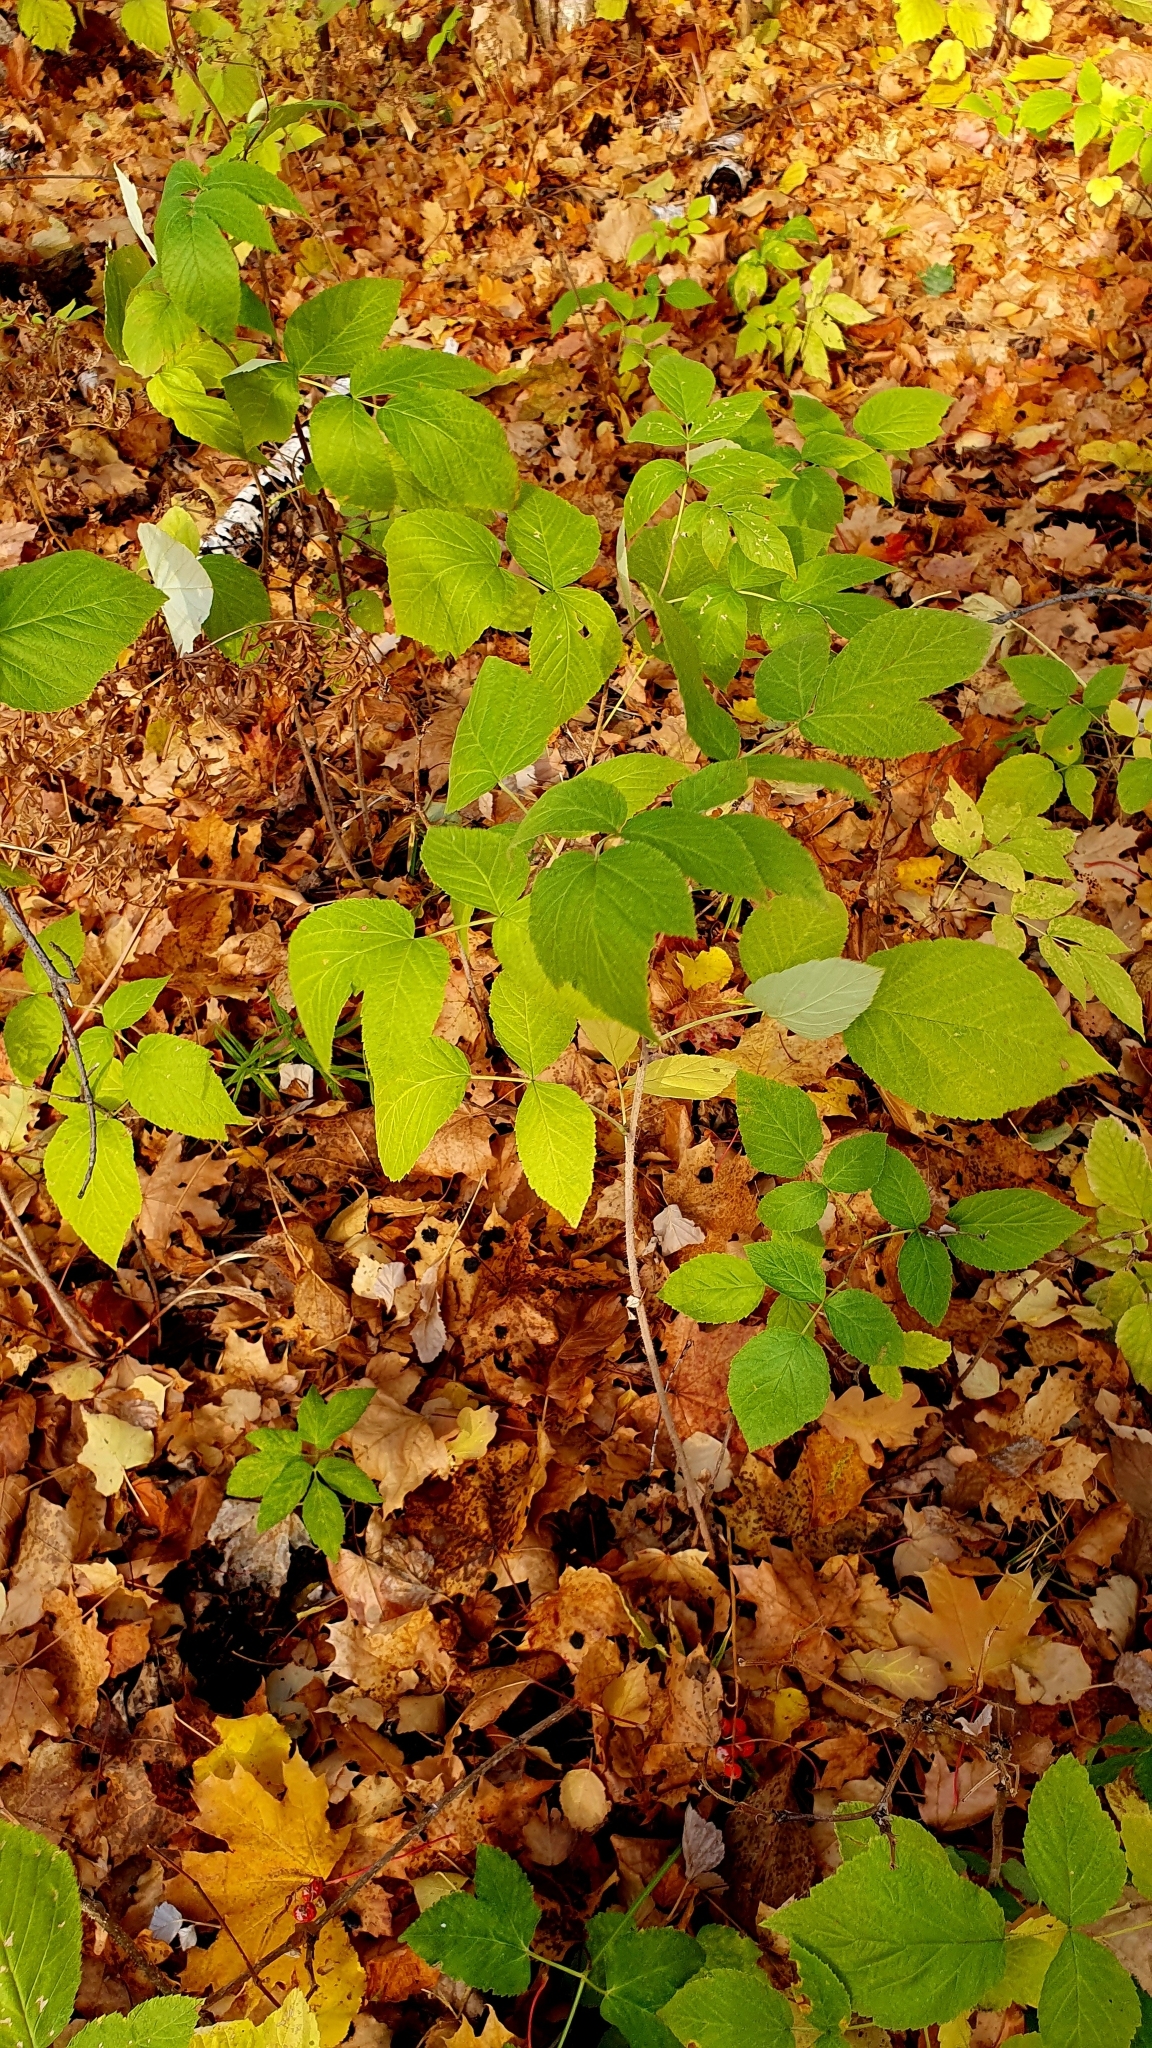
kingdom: Plantae
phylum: Tracheophyta
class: Magnoliopsida
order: Rosales
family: Rosaceae
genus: Rubus
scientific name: Rubus idaeus
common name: Raspberry
